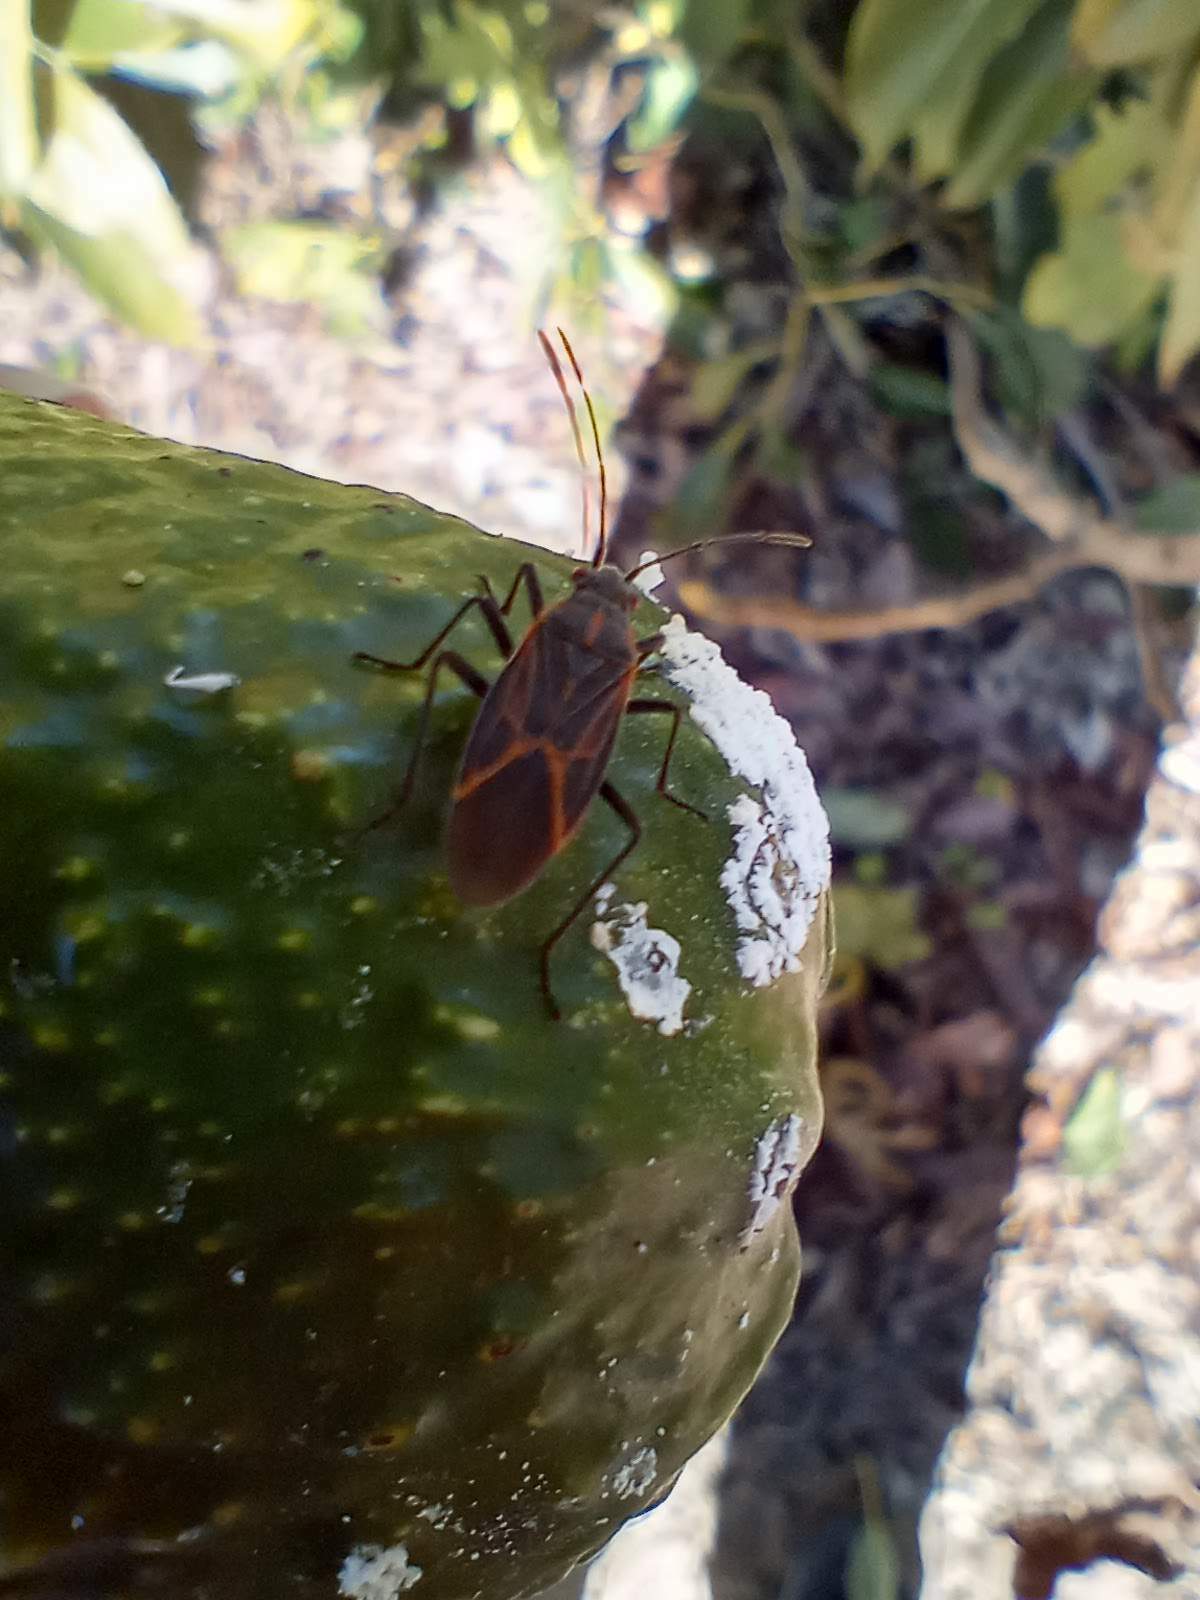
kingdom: Animalia
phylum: Arthropoda
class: Insecta
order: Hemiptera
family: Rhopalidae
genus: Boisea
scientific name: Boisea rubrolineata
